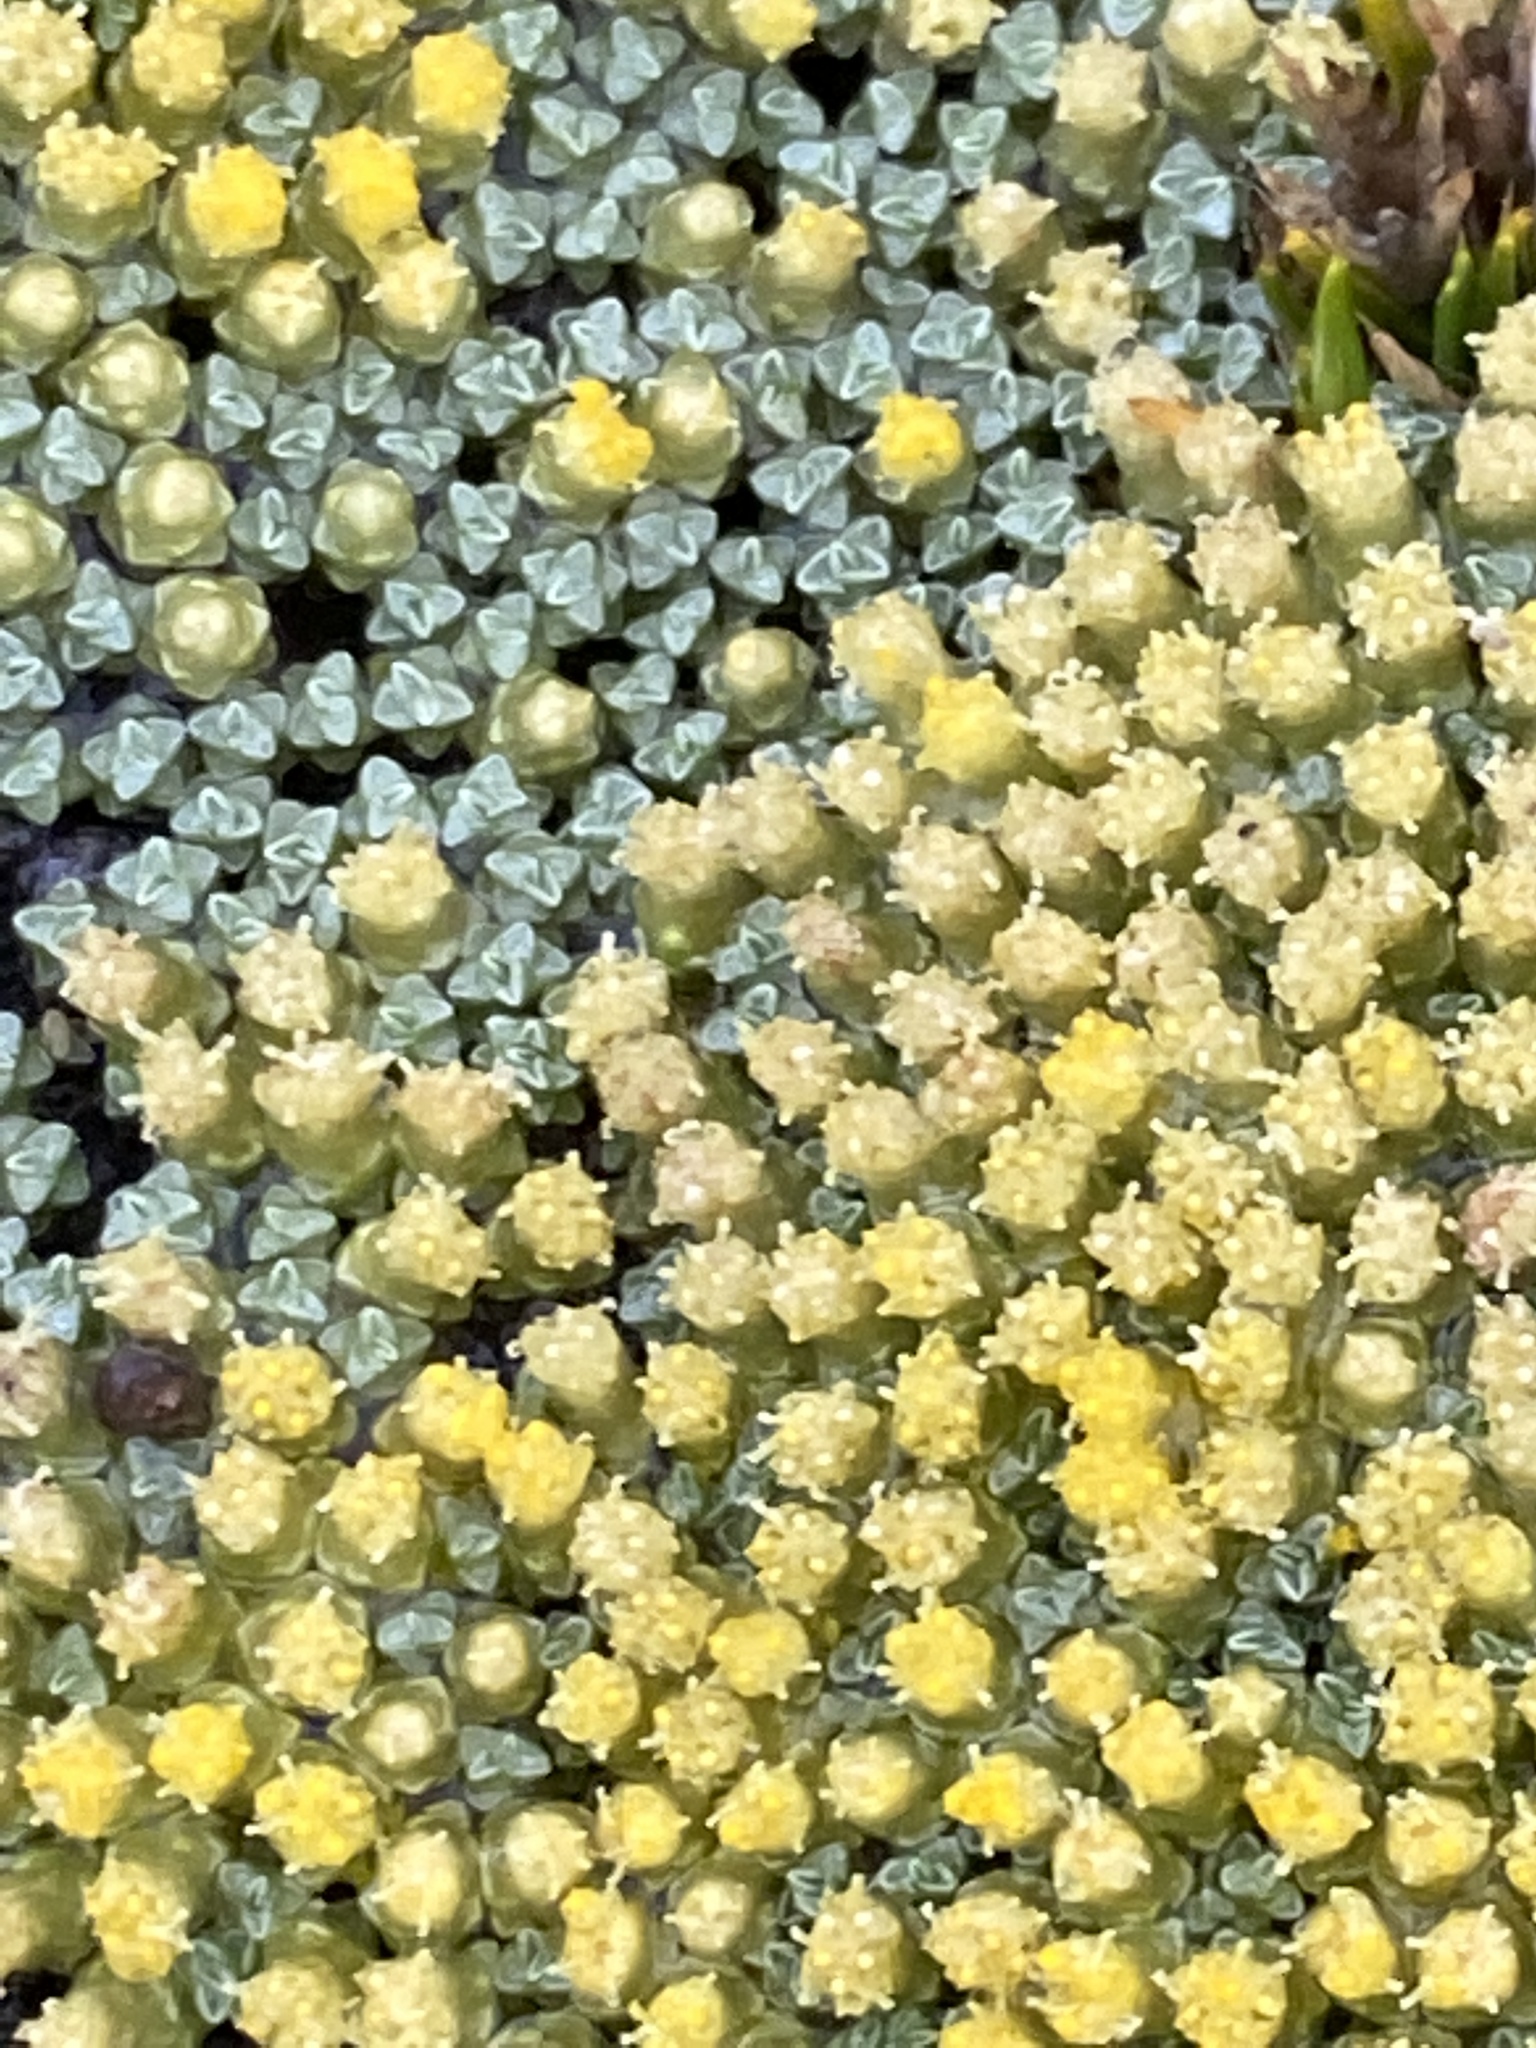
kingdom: Plantae
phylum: Tracheophyta
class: Magnoliopsida
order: Asterales
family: Asteraceae
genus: Raoulia
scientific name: Raoulia australis
